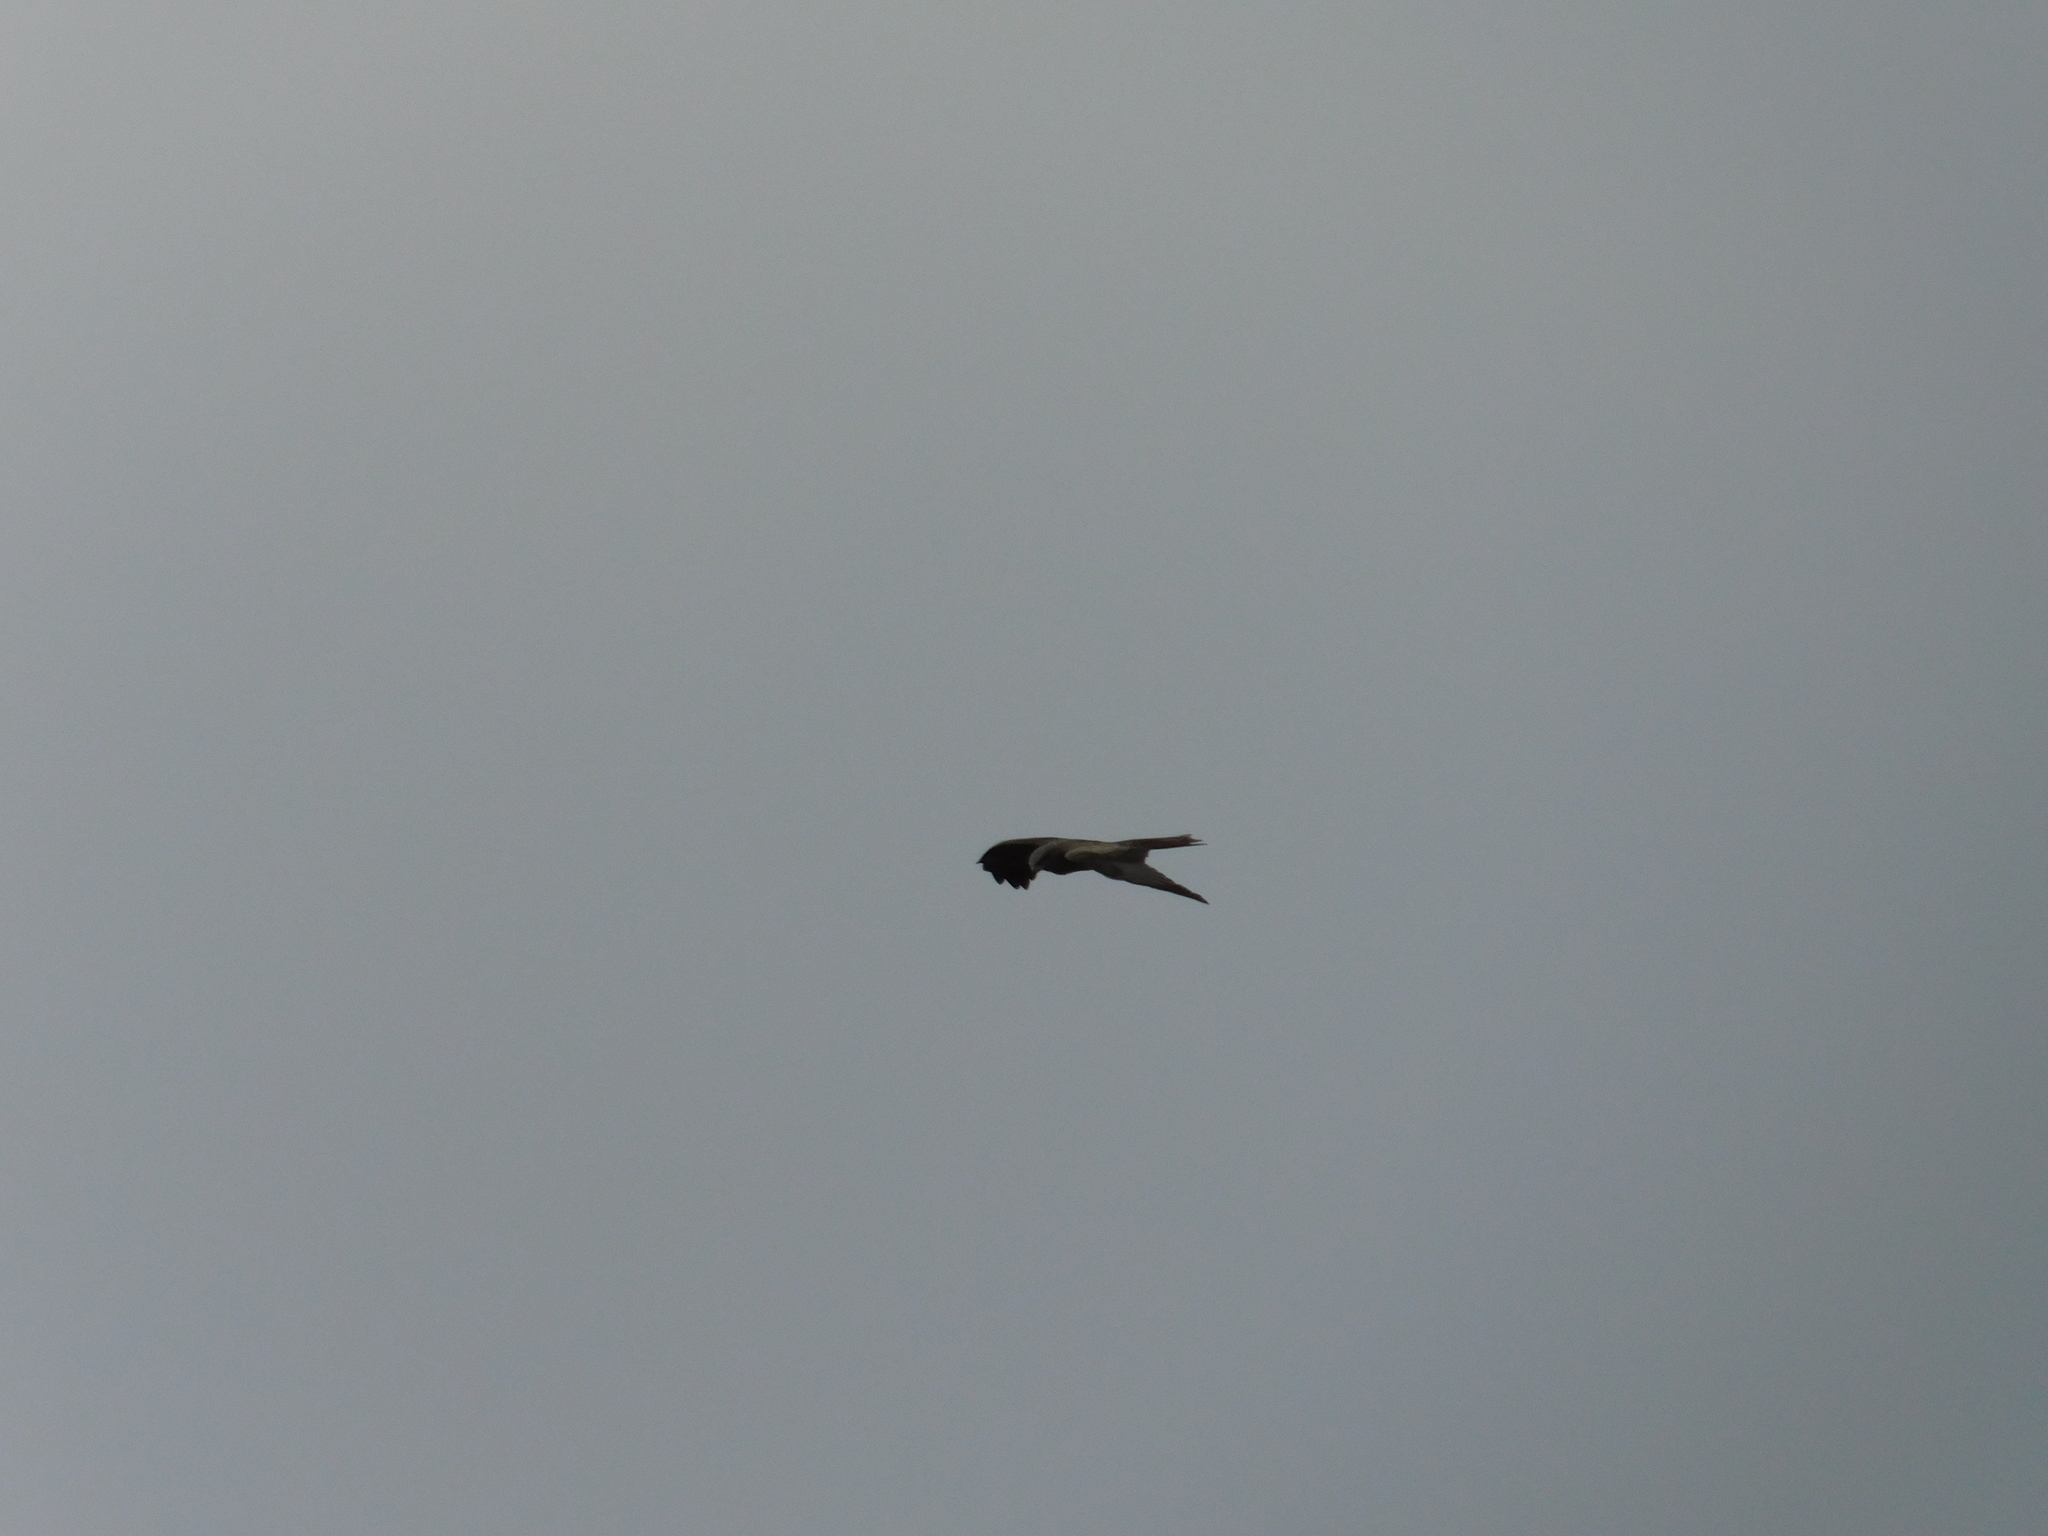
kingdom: Animalia
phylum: Chordata
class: Aves
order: Accipitriformes
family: Accipitridae
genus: Milvus
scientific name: Milvus migrans
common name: Black kite
